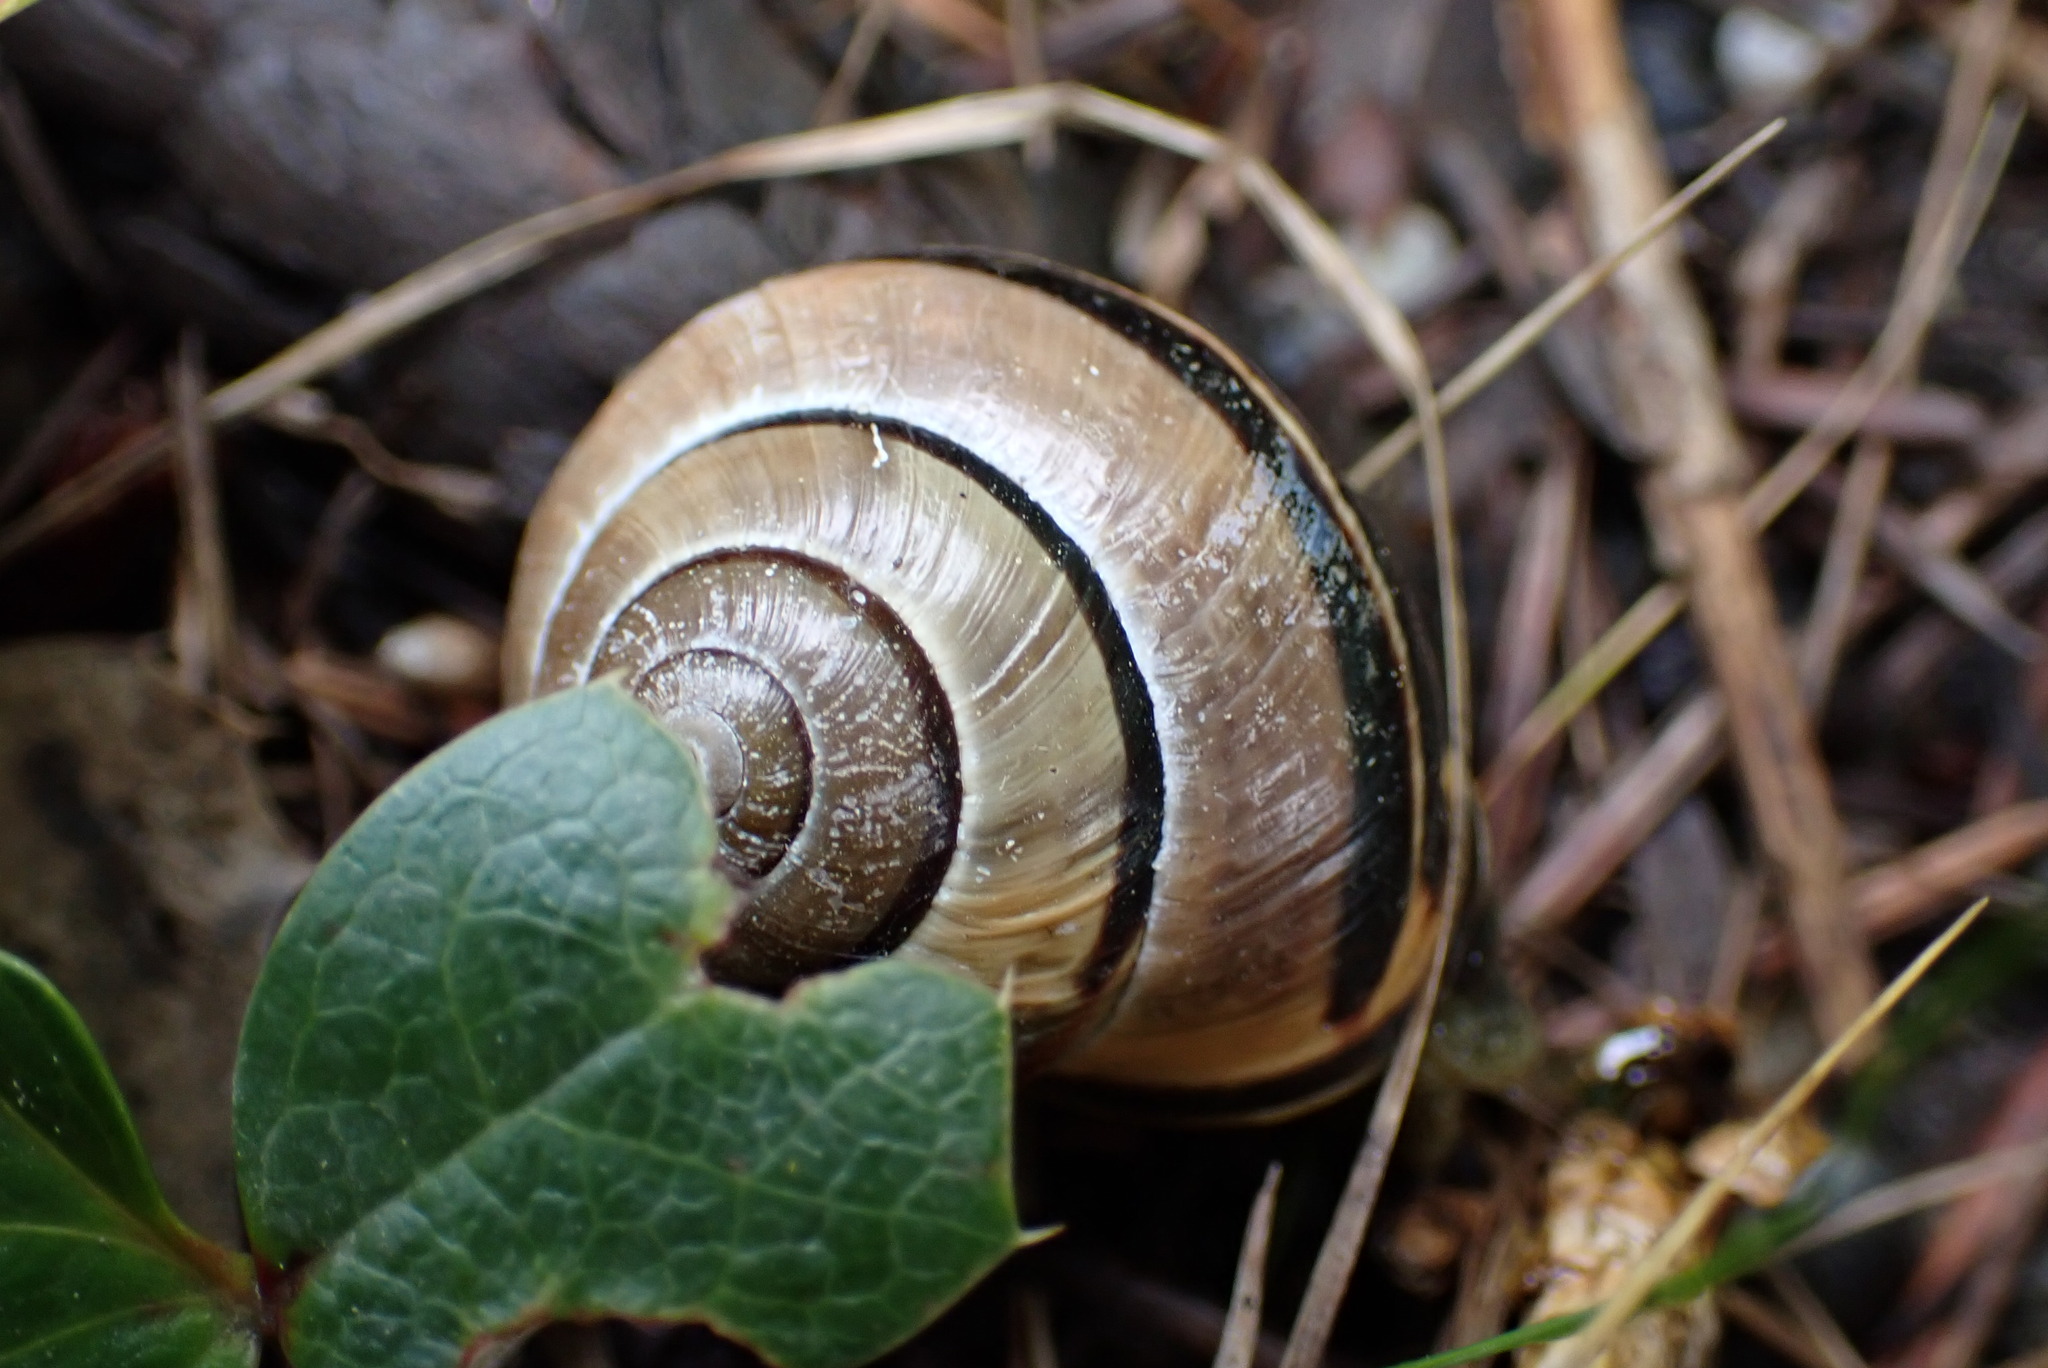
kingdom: Animalia
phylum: Mollusca
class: Gastropoda
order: Stylommatophora
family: Helicidae
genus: Cepaea
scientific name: Cepaea nemoralis
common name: Grovesnail
